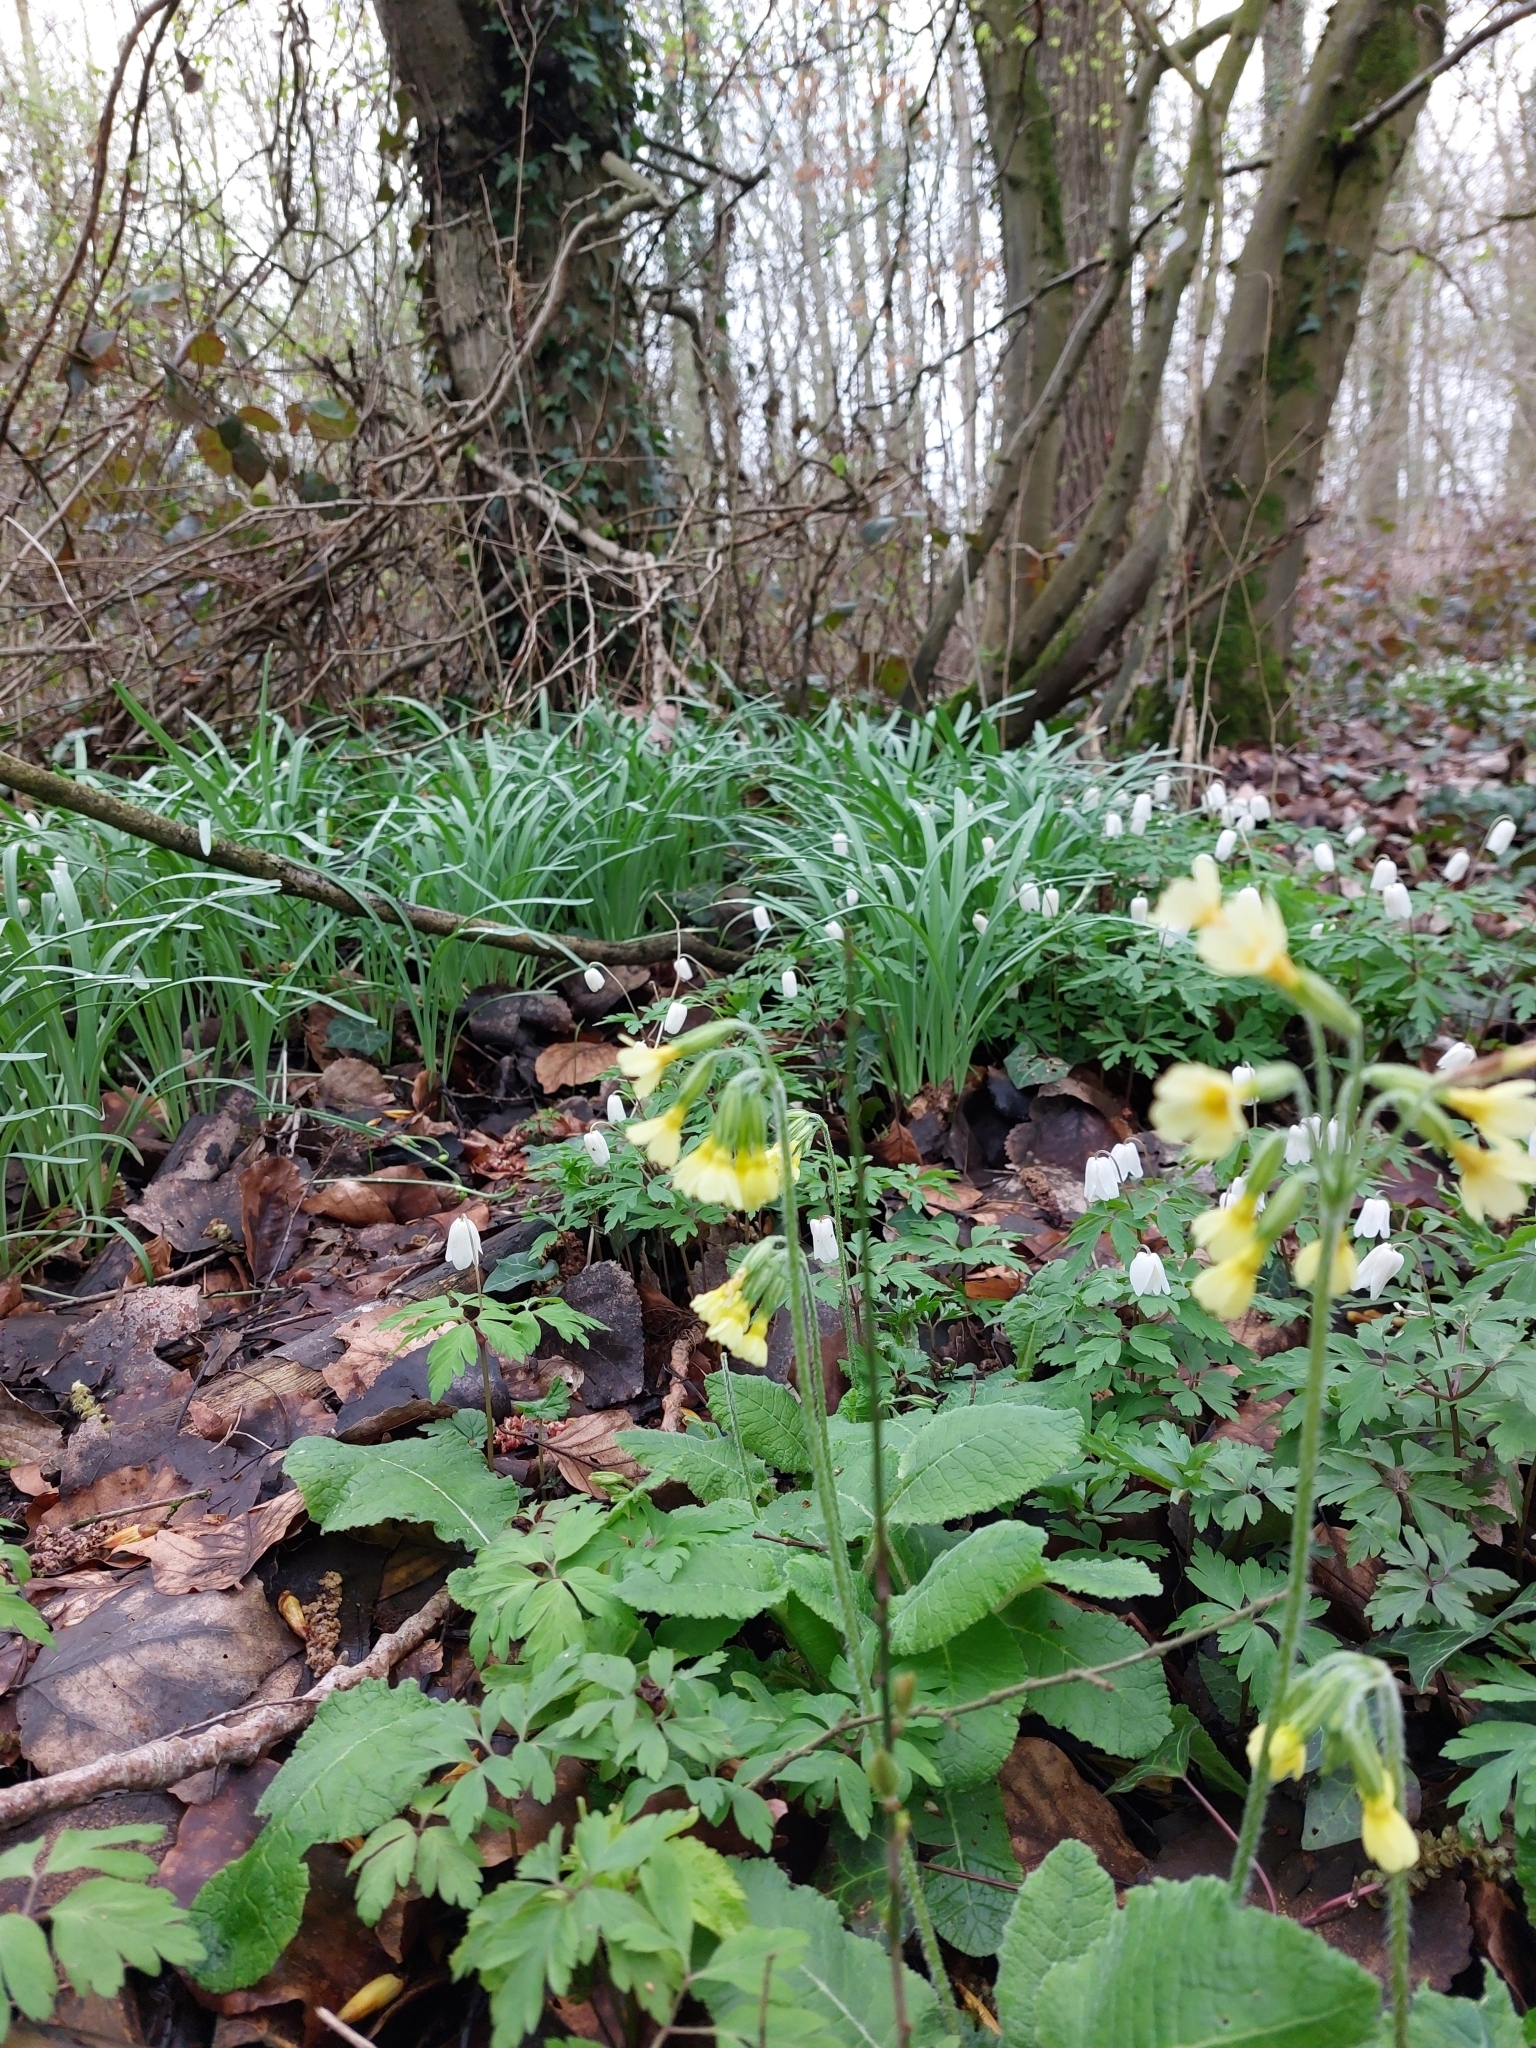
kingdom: Plantae
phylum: Tracheophyta
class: Magnoliopsida
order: Ericales
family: Primulaceae
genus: Primula
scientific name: Primula elatior
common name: Oxlip
